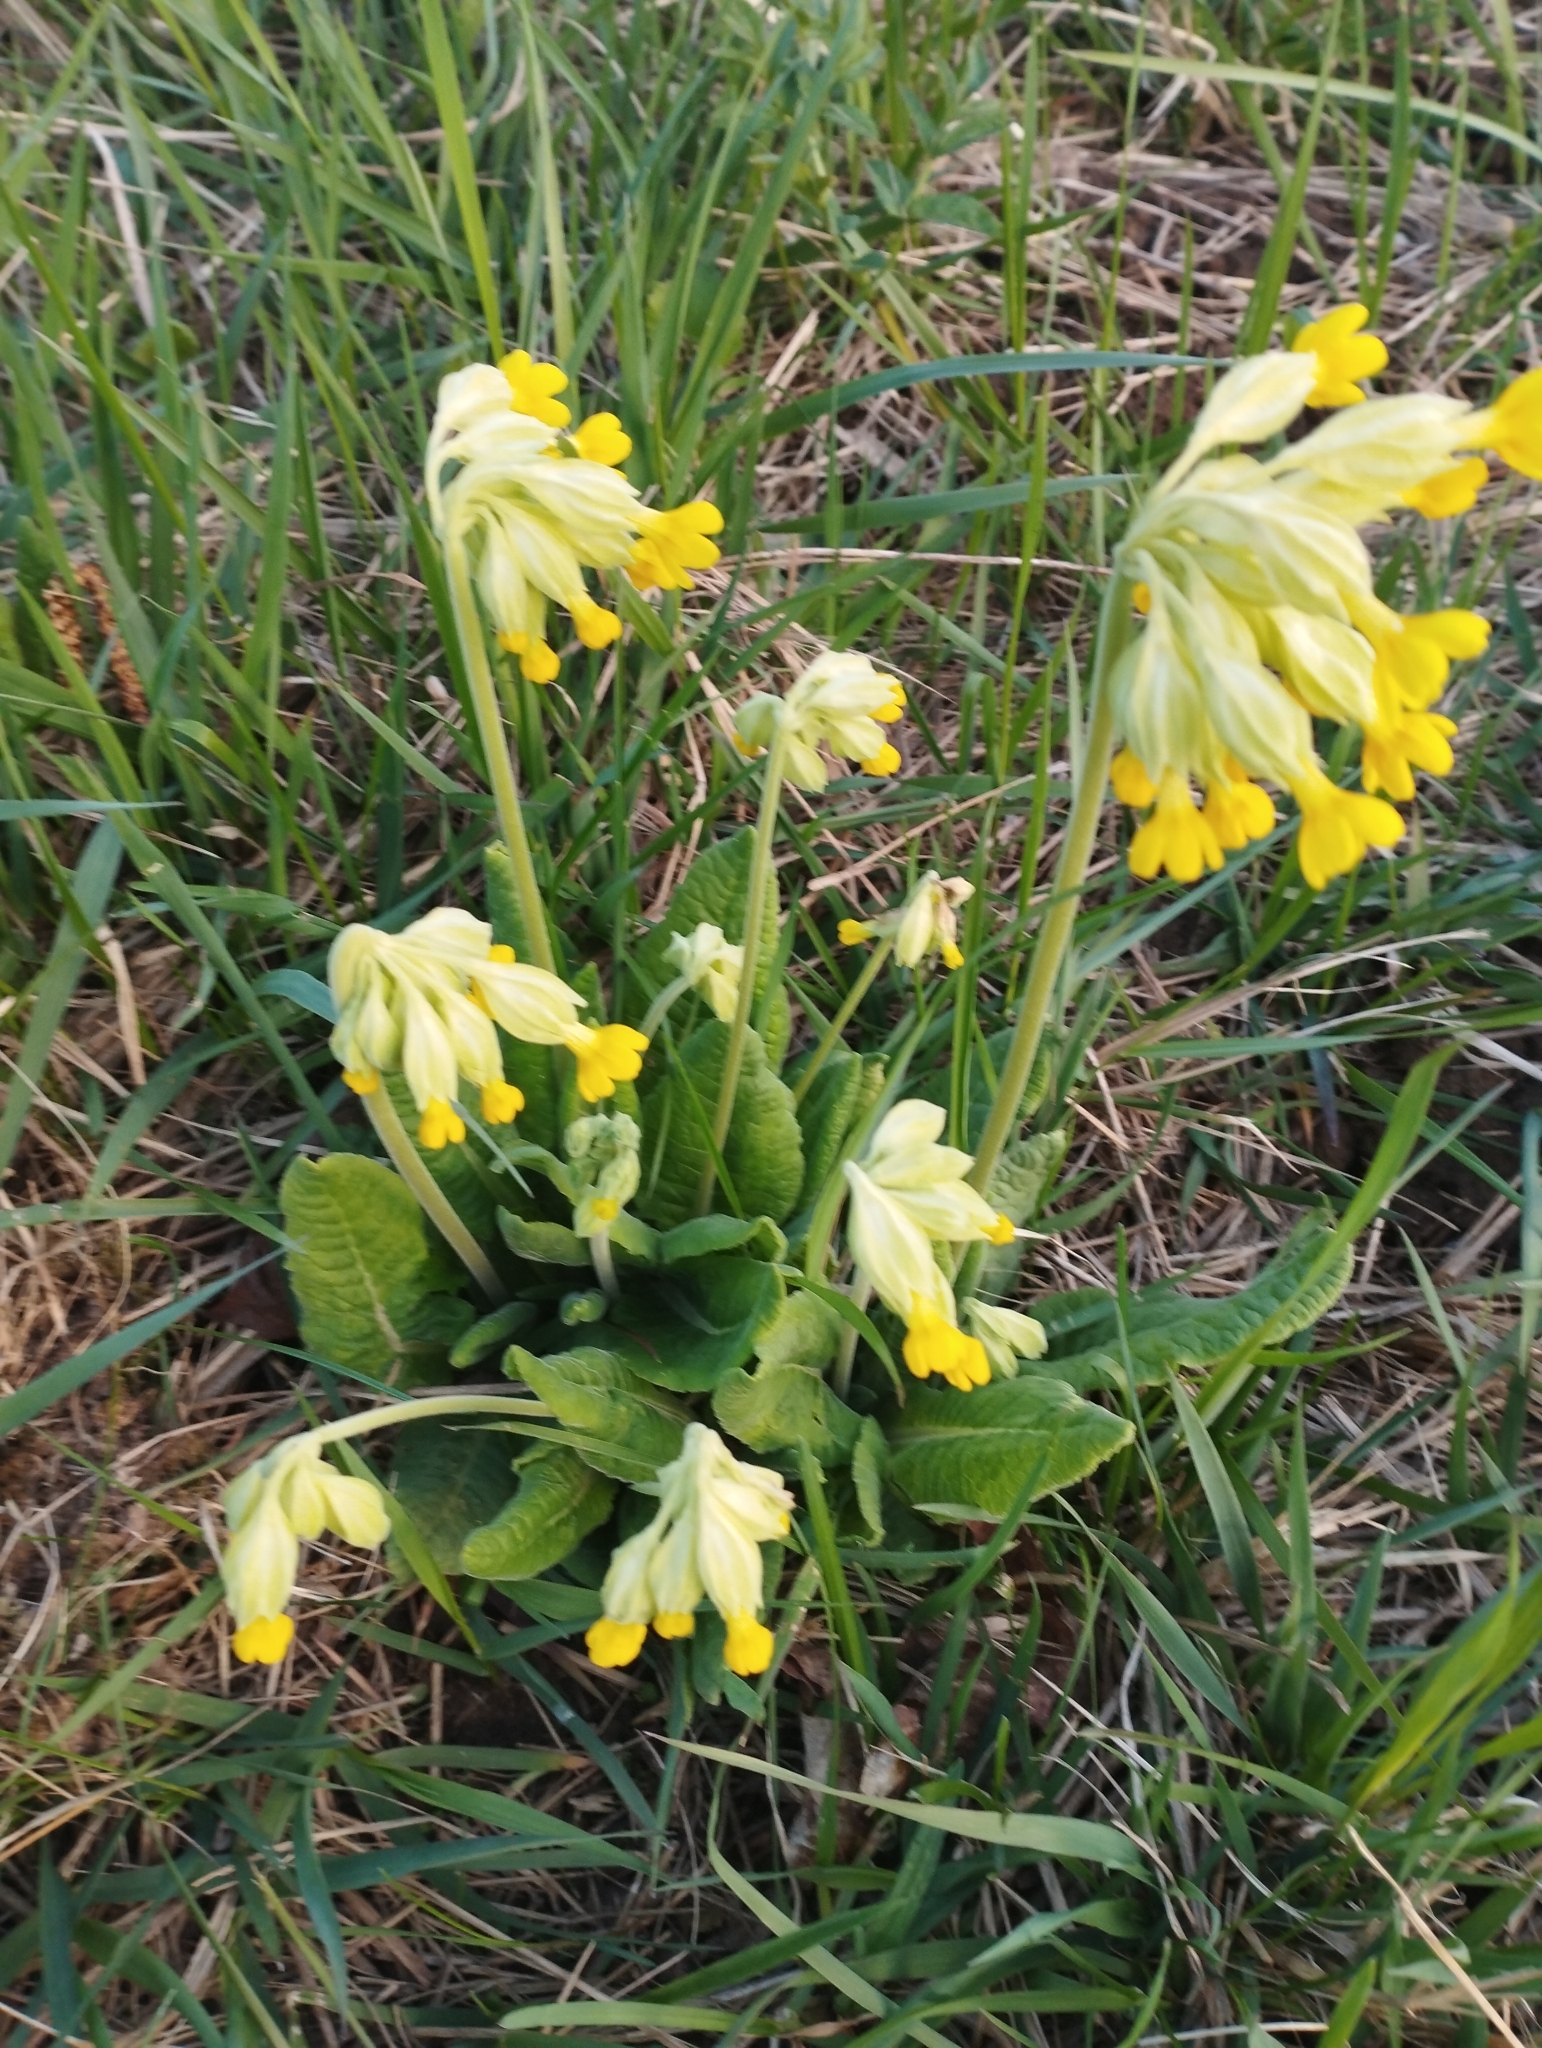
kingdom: Plantae
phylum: Tracheophyta
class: Magnoliopsida
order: Ericales
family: Primulaceae
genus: Primula
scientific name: Primula veris
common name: Cowslip
